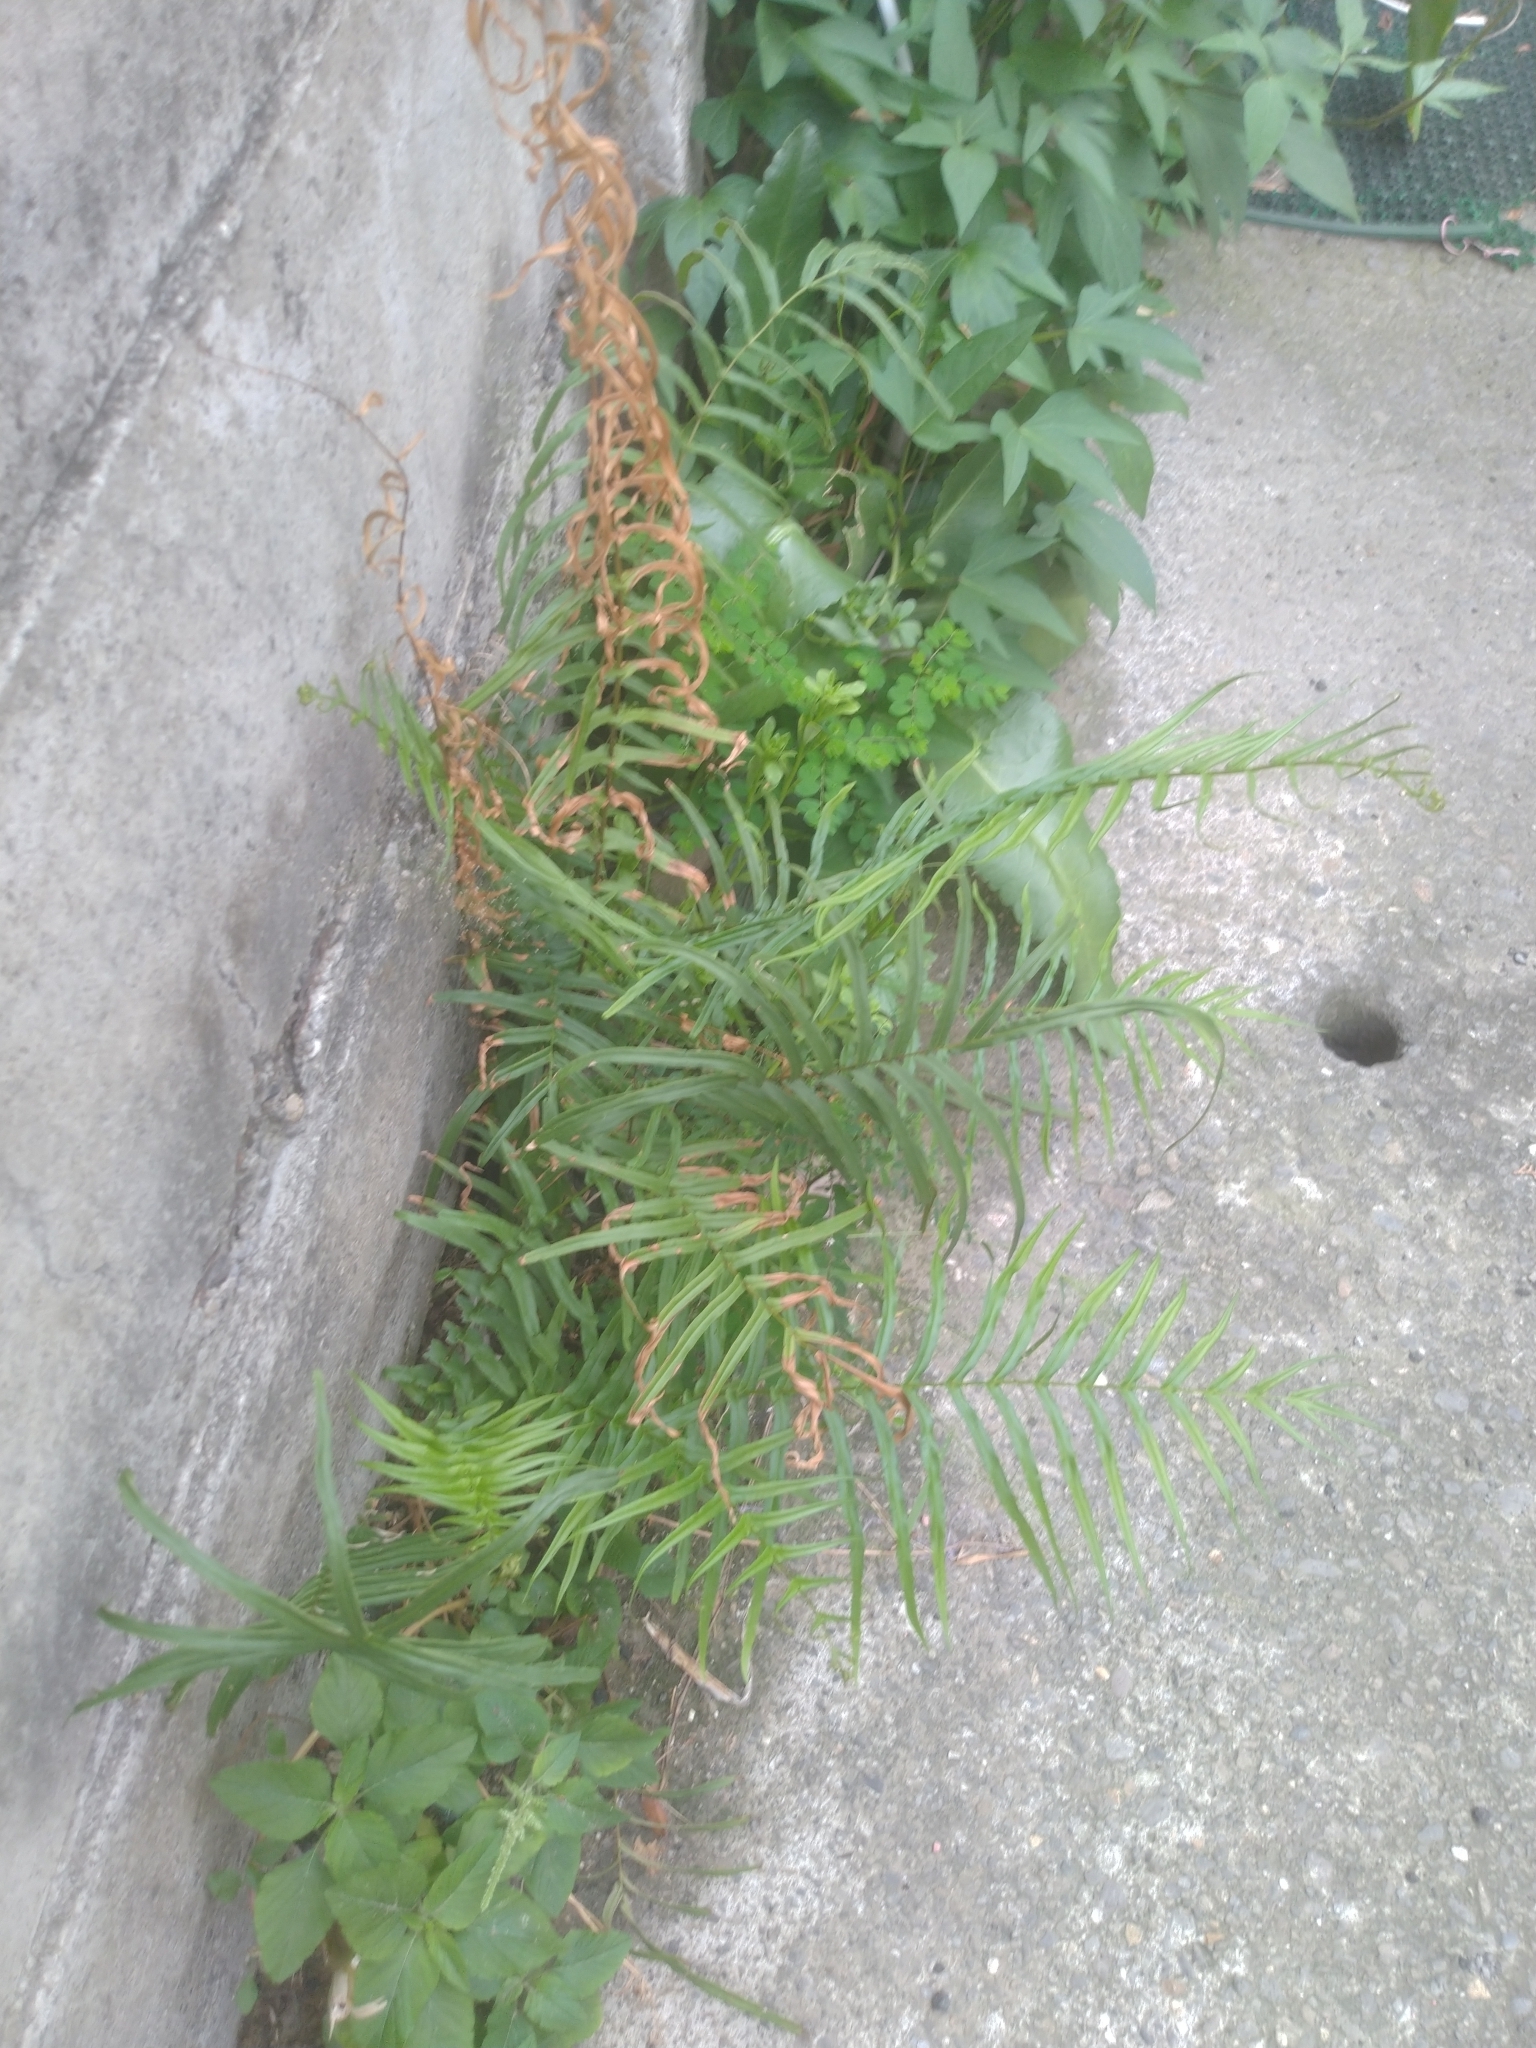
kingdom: Plantae
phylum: Tracheophyta
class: Polypodiopsida
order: Polypodiales
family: Pteridaceae
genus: Pteris
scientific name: Pteris vittata
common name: Ladder brake
